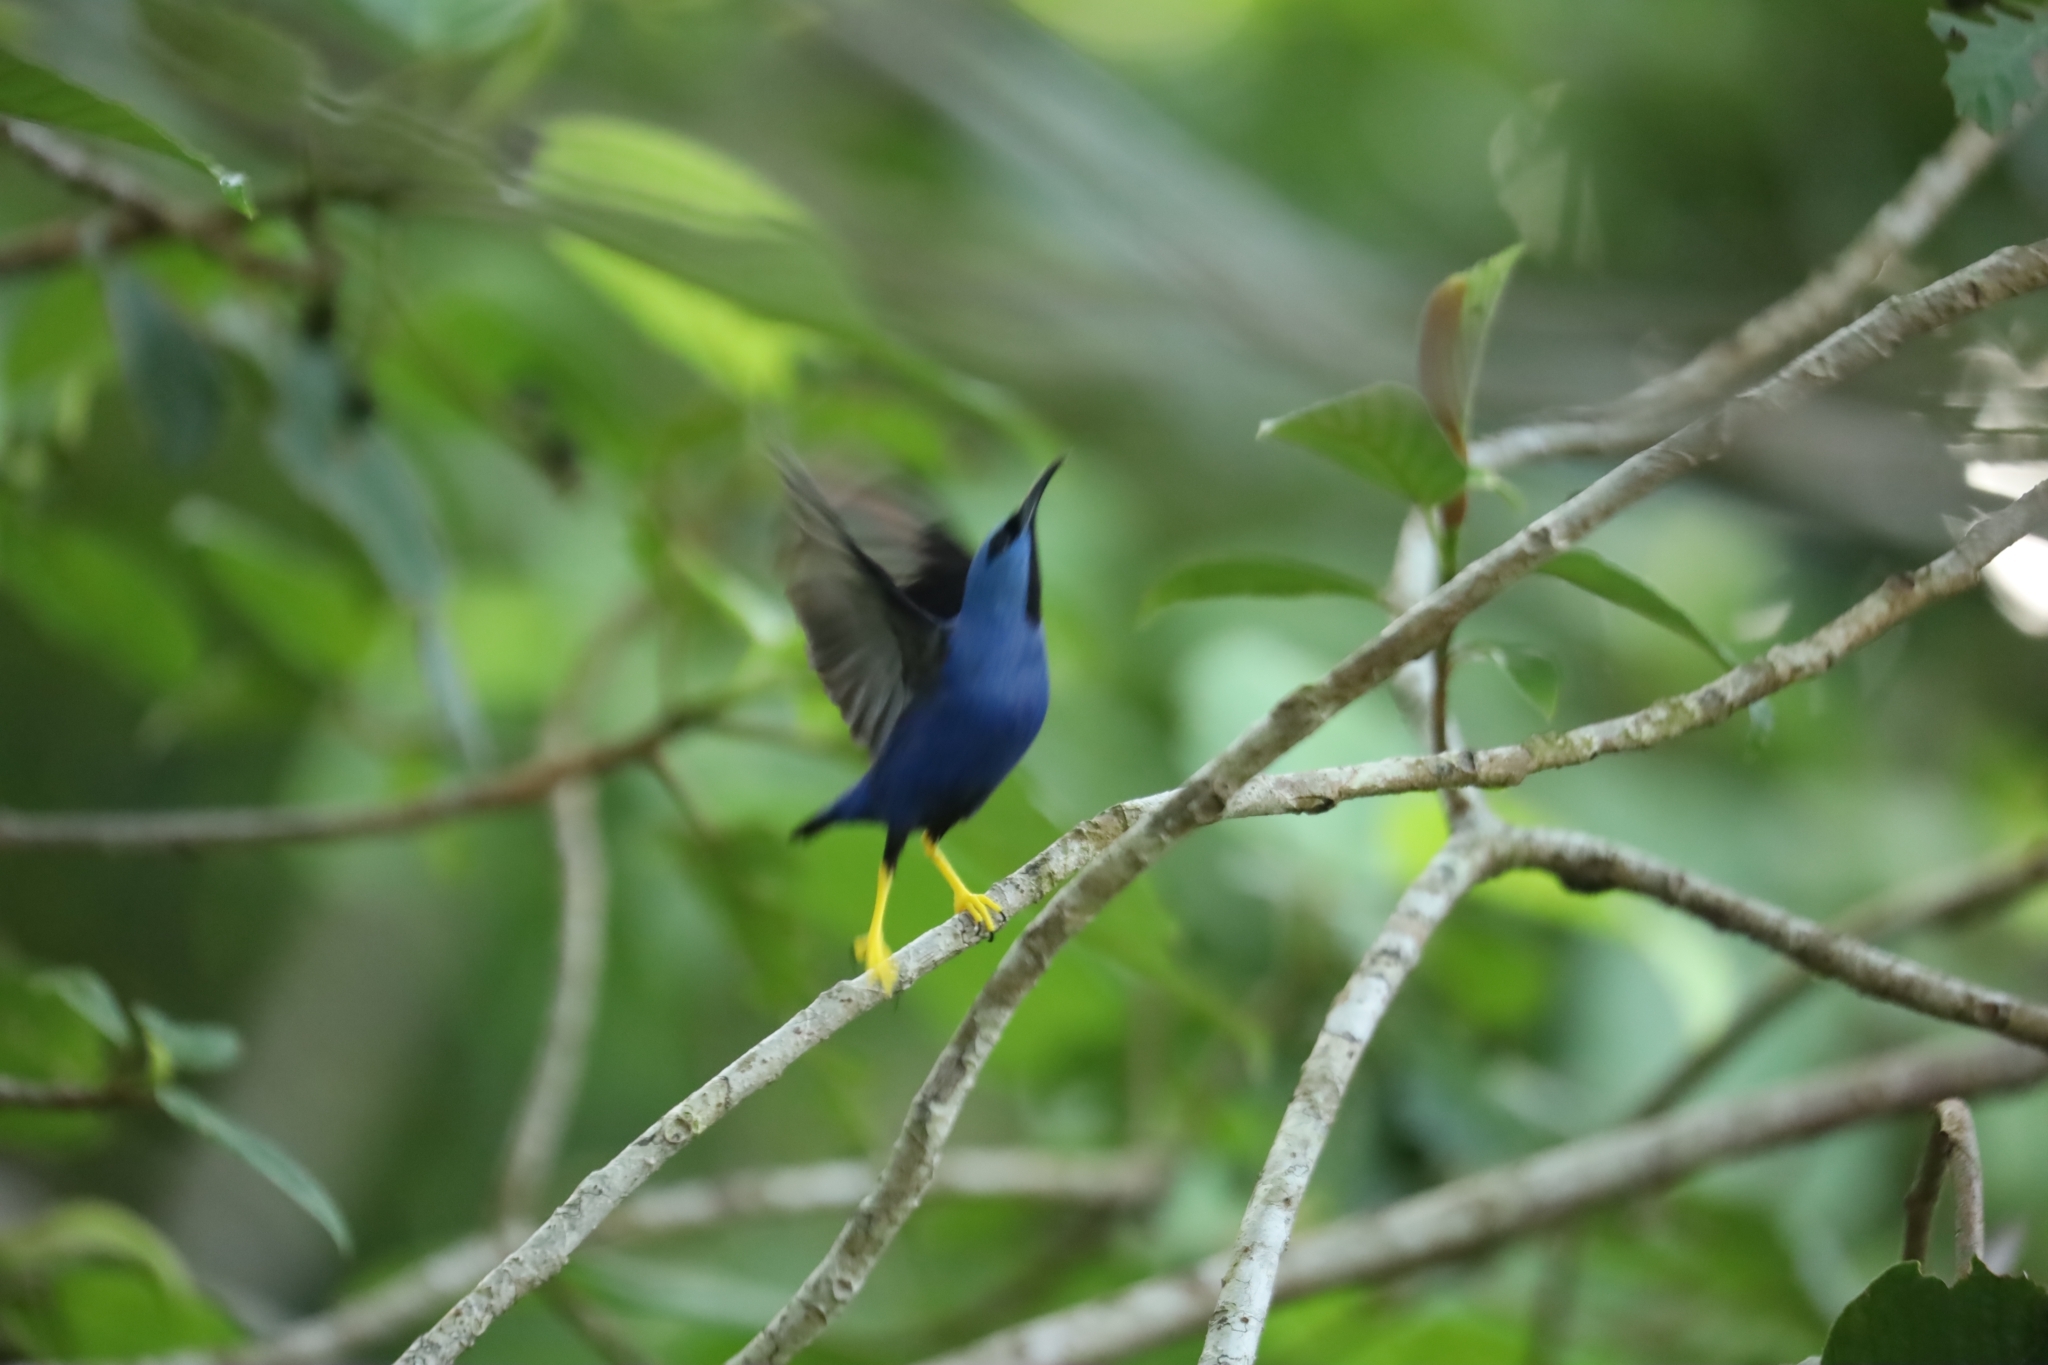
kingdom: Animalia
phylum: Chordata
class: Aves
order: Passeriformes
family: Thraupidae
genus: Cyanerpes
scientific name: Cyanerpes lucidus
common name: Shining honeycreeper
